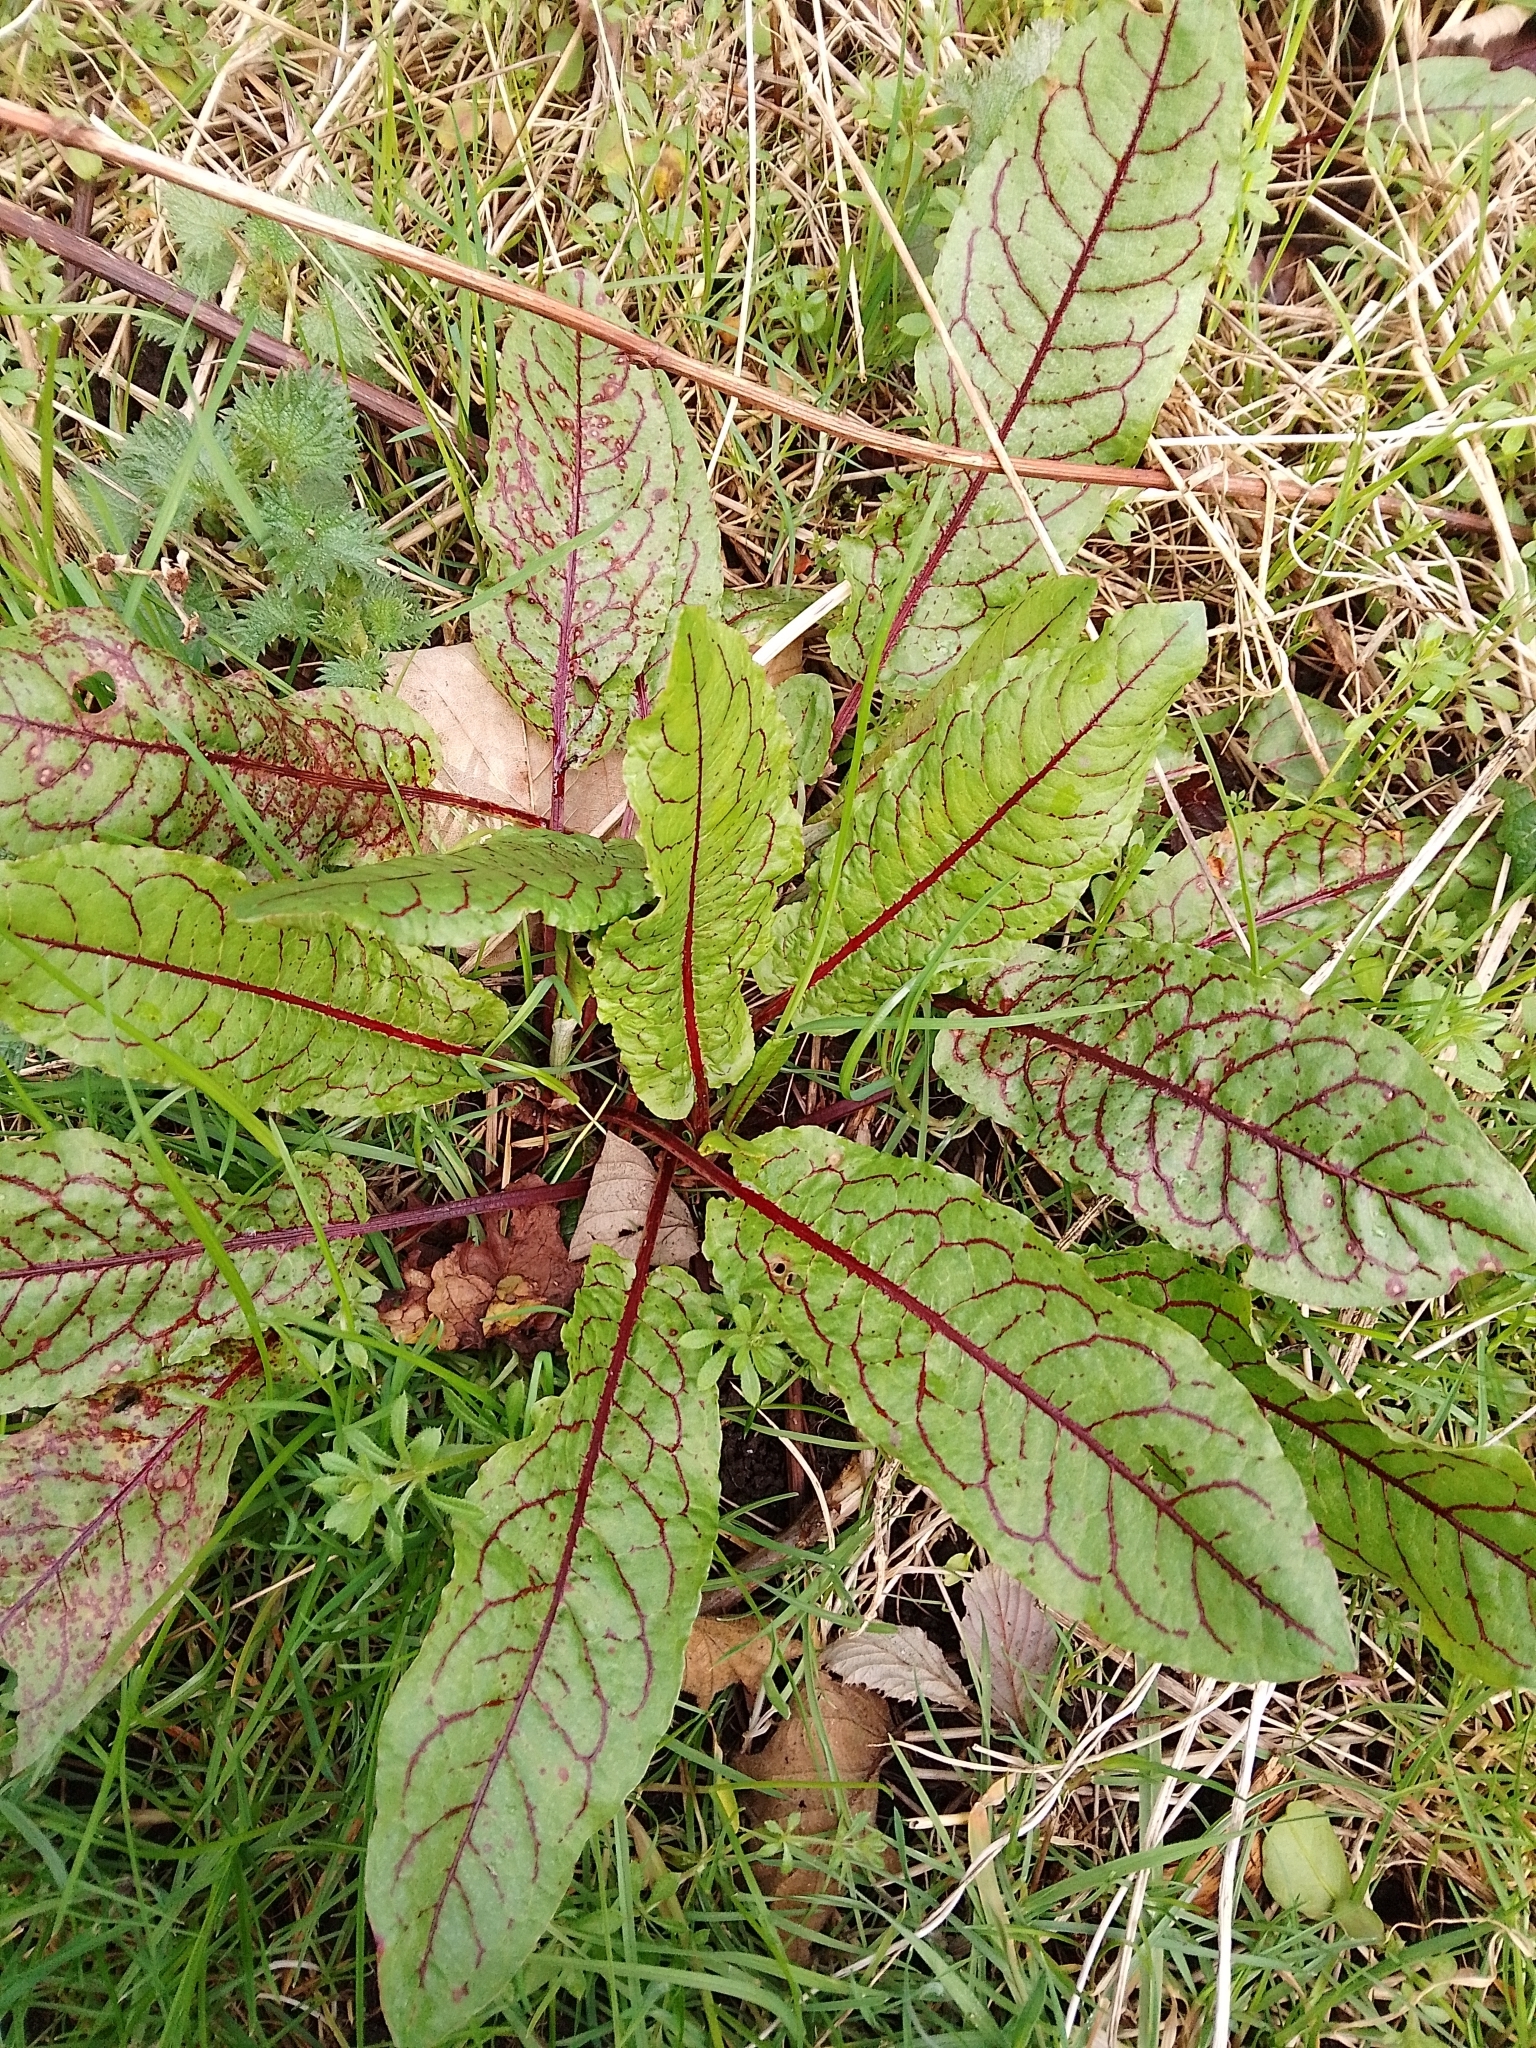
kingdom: Plantae
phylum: Tracheophyta
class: Magnoliopsida
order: Caryophyllales
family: Polygonaceae
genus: Rumex
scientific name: Rumex sanguineus
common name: Wood dock
